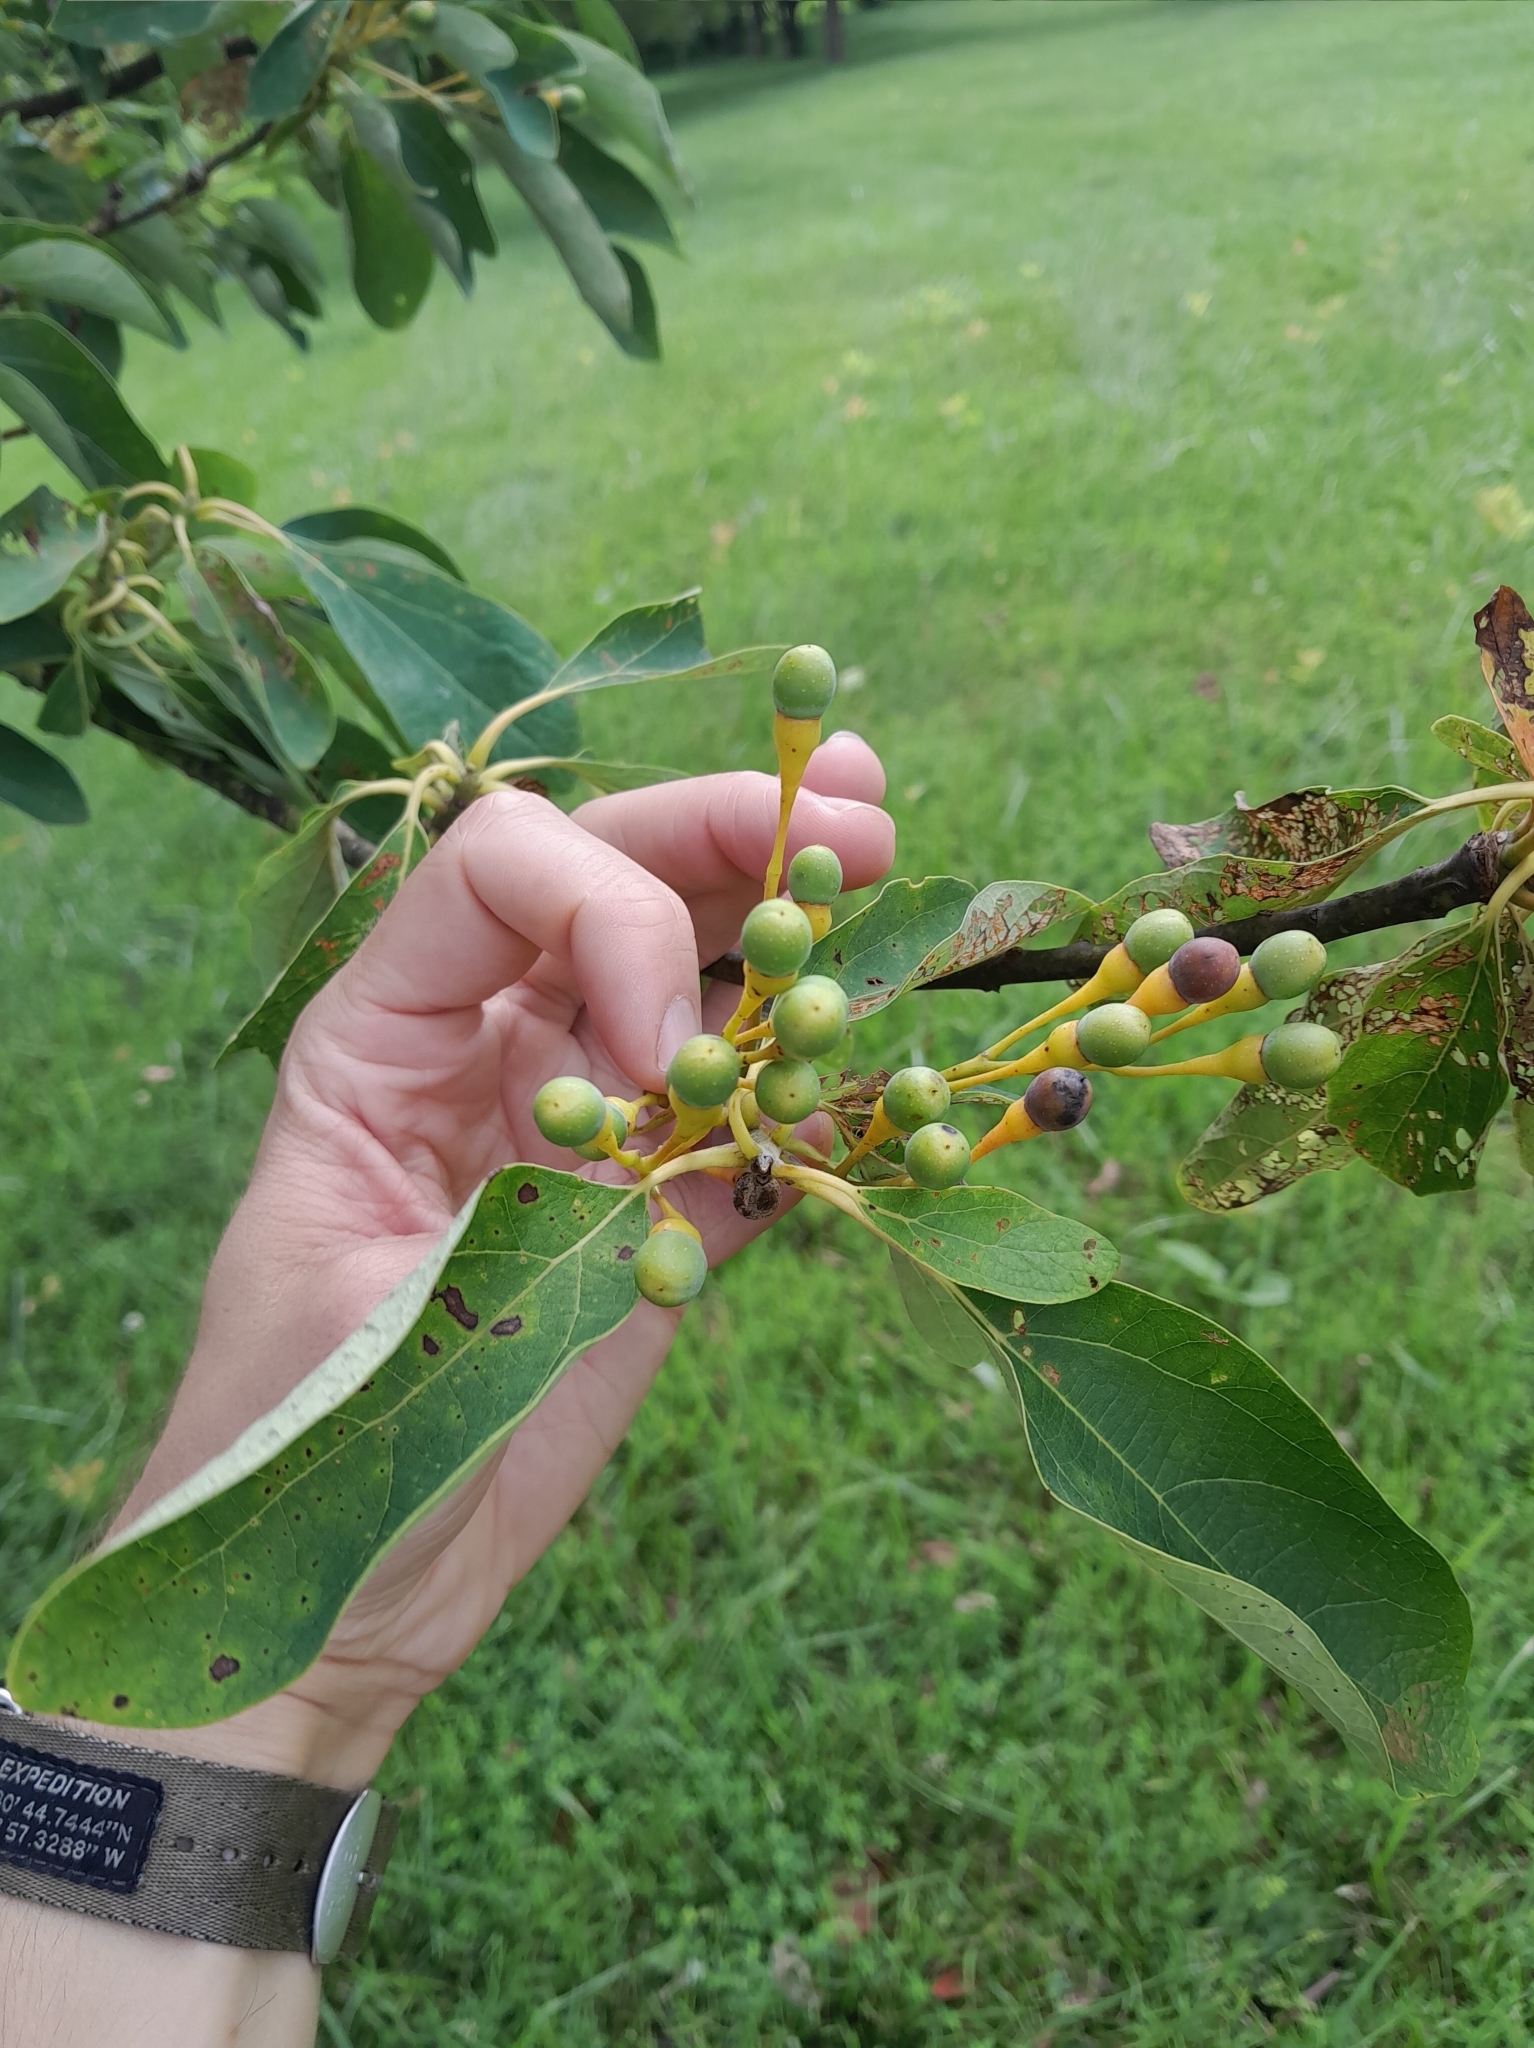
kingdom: Plantae
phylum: Tracheophyta
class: Magnoliopsida
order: Laurales
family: Lauraceae
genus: Sassafras
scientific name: Sassafras albidum
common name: Sassafras
